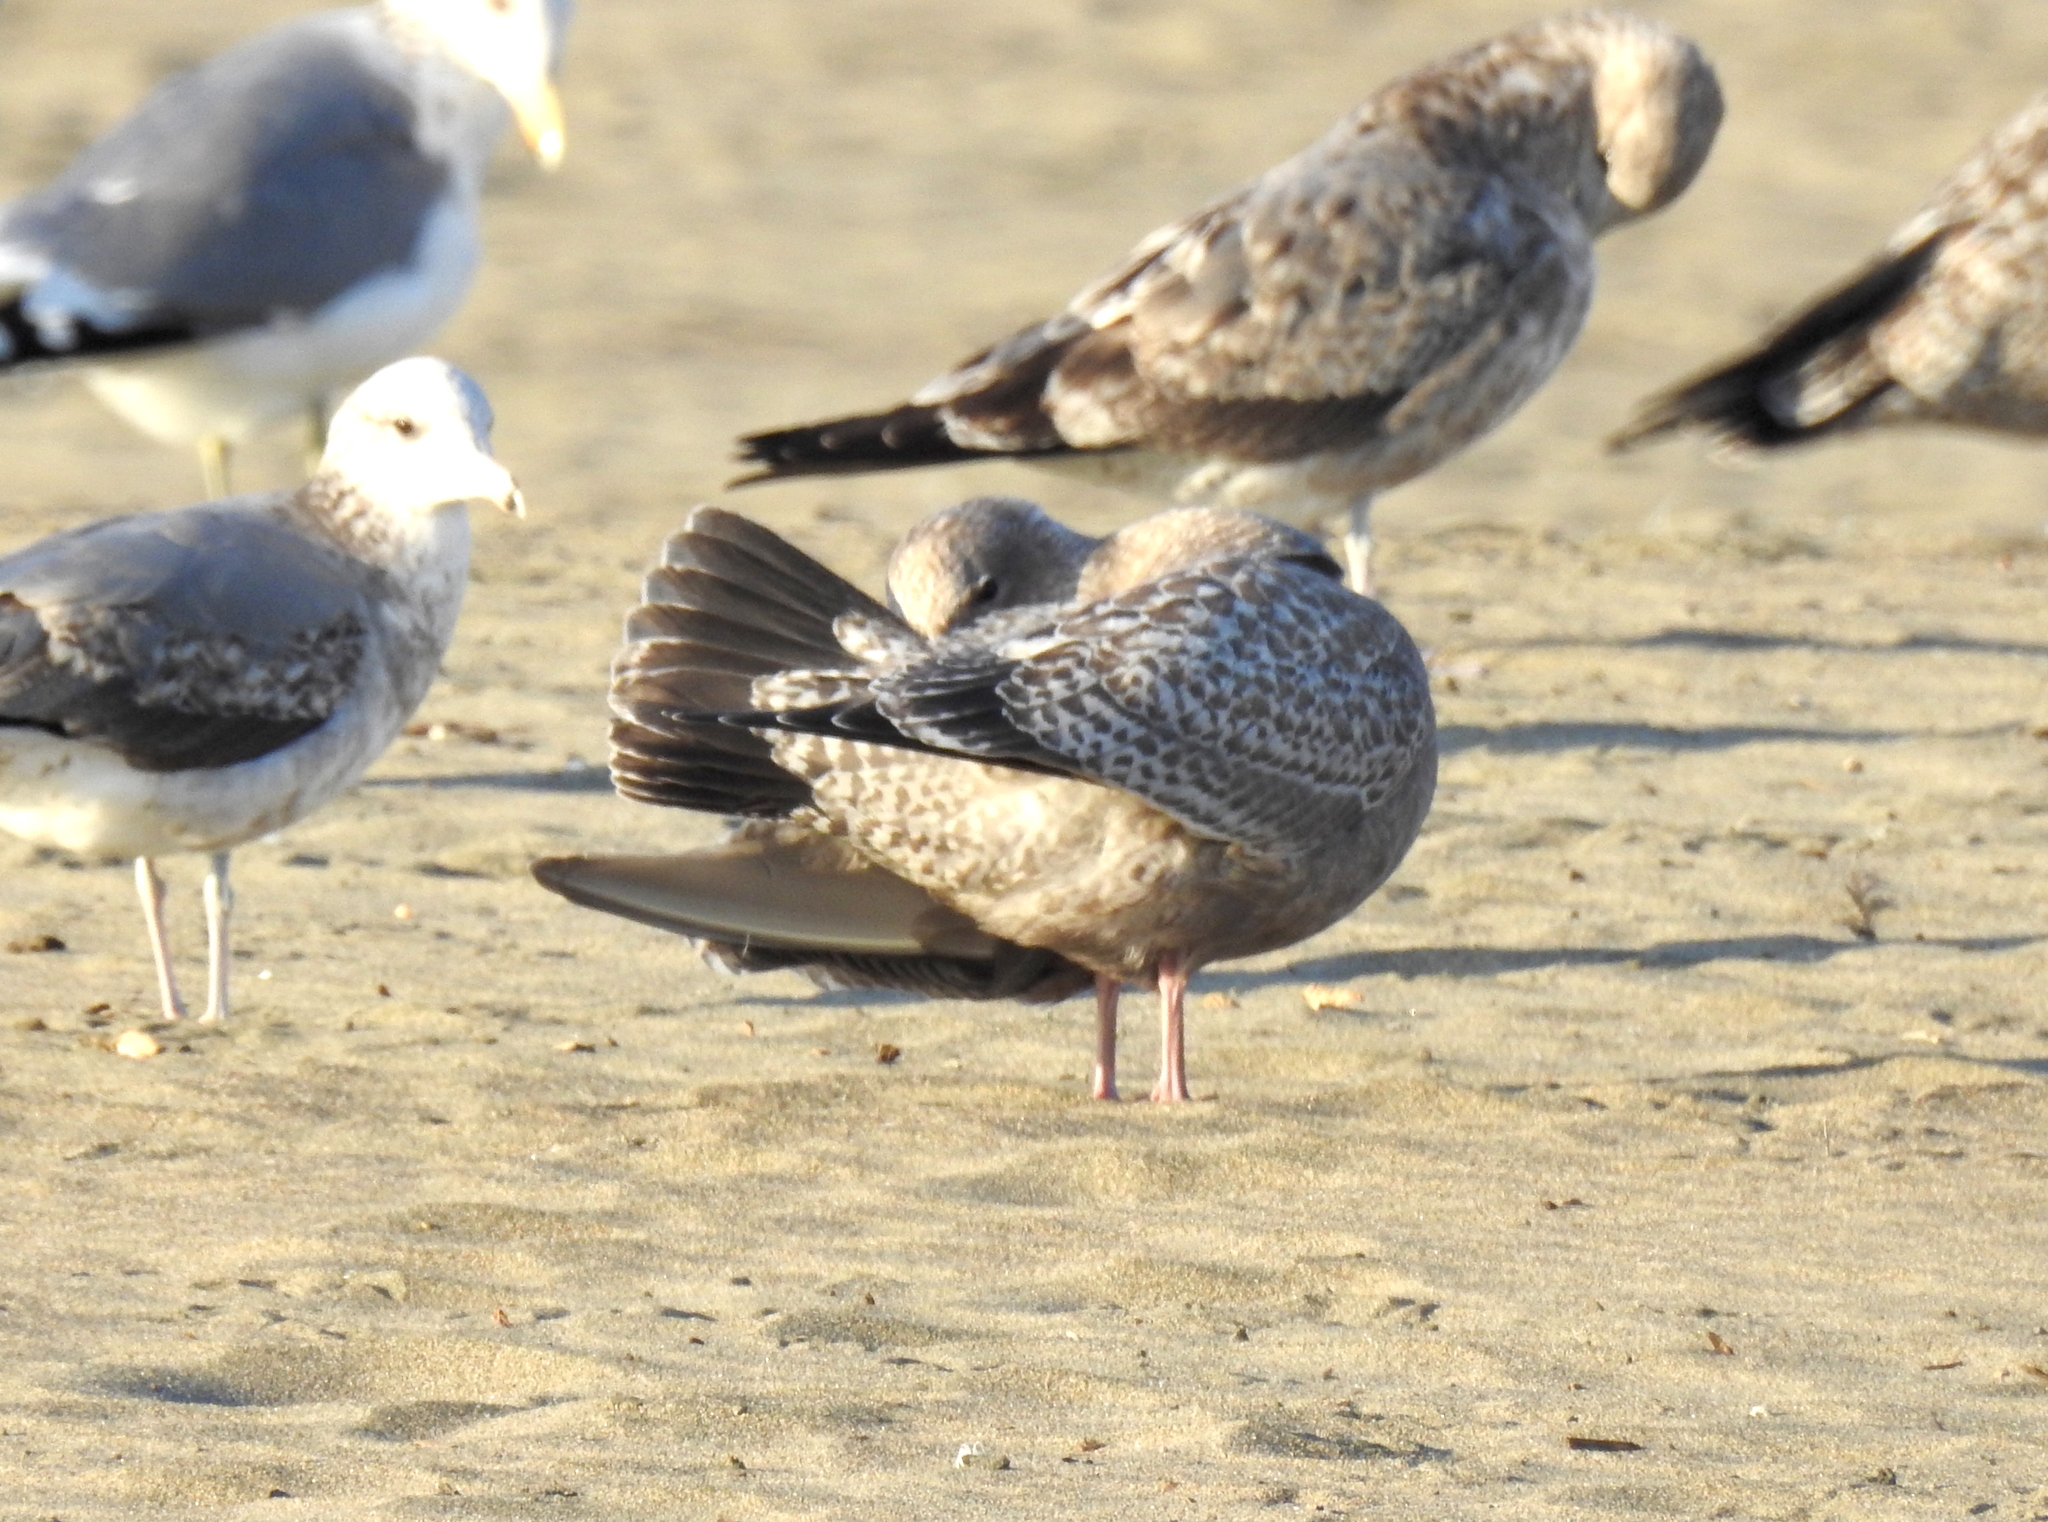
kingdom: Animalia
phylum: Chordata
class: Aves
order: Charadriiformes
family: Laridae
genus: Larus
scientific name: Larus glaucoides
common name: Iceland gull
